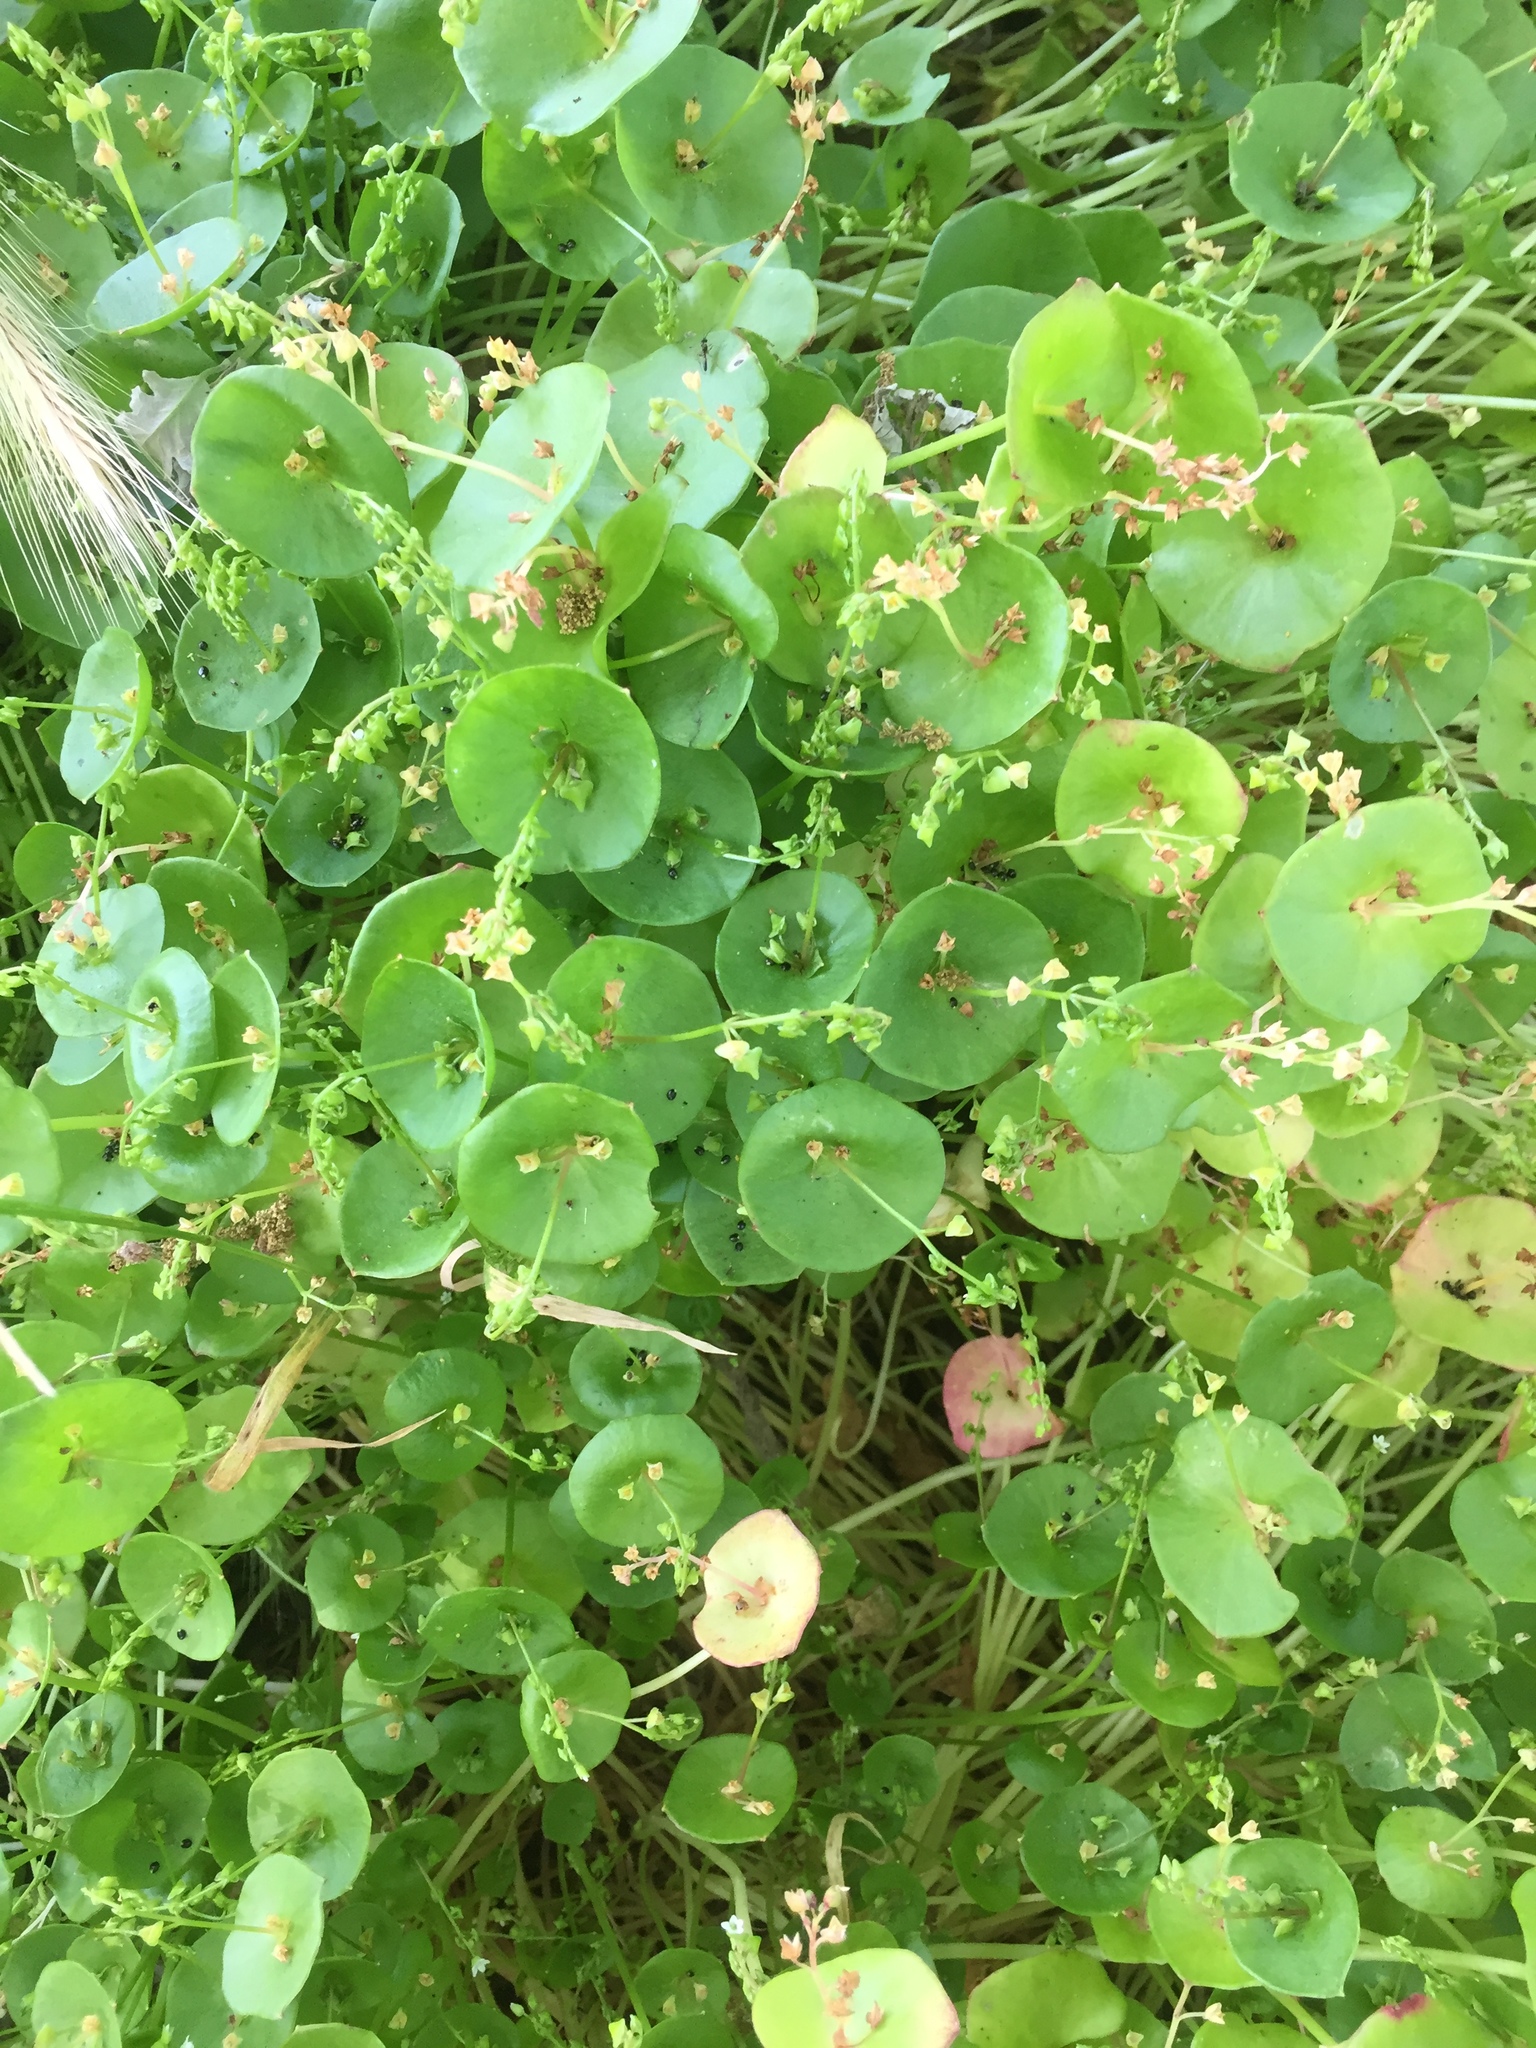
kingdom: Plantae
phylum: Tracheophyta
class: Magnoliopsida
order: Caryophyllales
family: Montiaceae
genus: Claytonia
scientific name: Claytonia perfoliata
